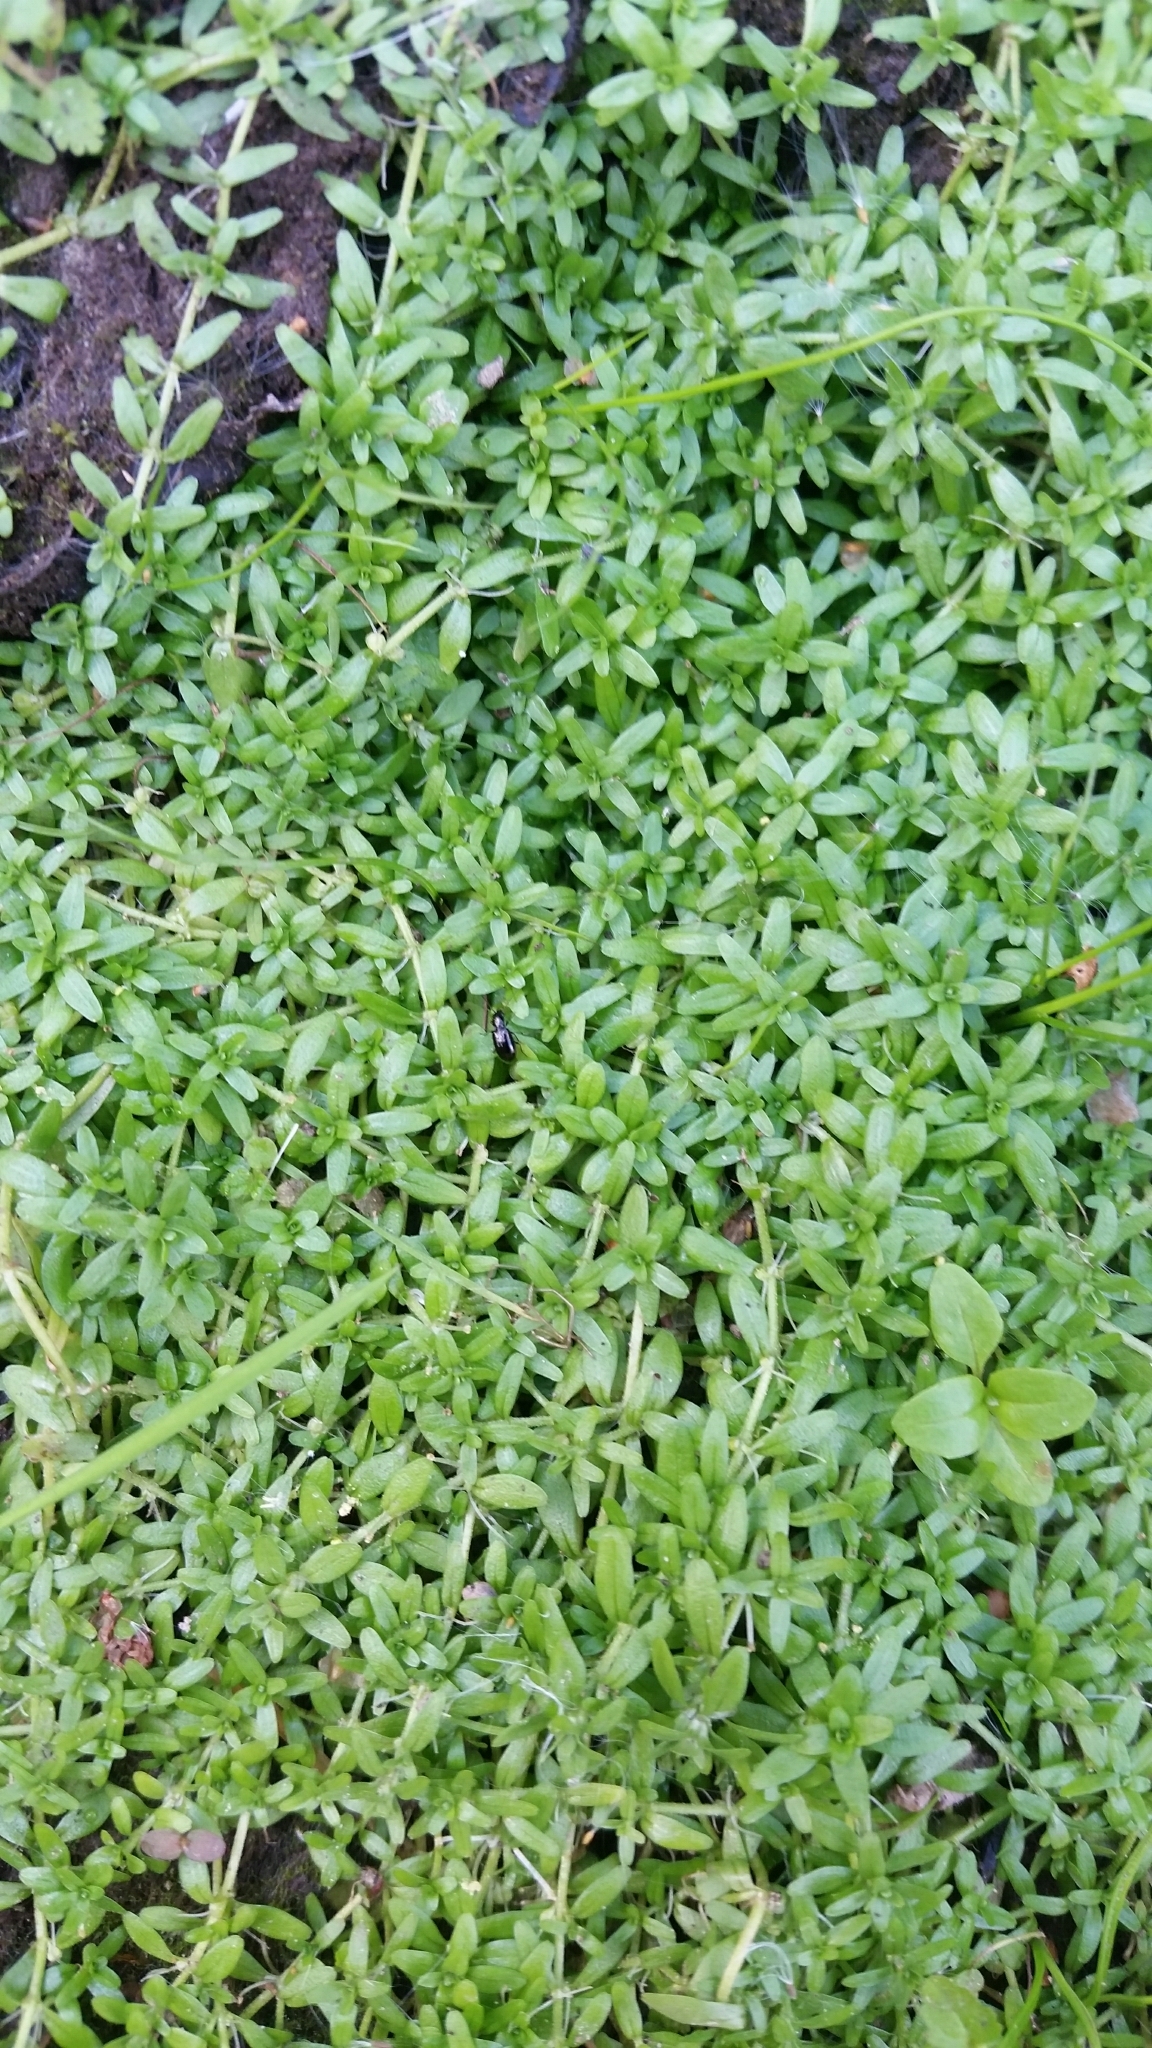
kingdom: Plantae
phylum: Tracheophyta
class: Magnoliopsida
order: Lamiales
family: Plantaginaceae
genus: Callitriche
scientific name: Callitriche cophocarpa
